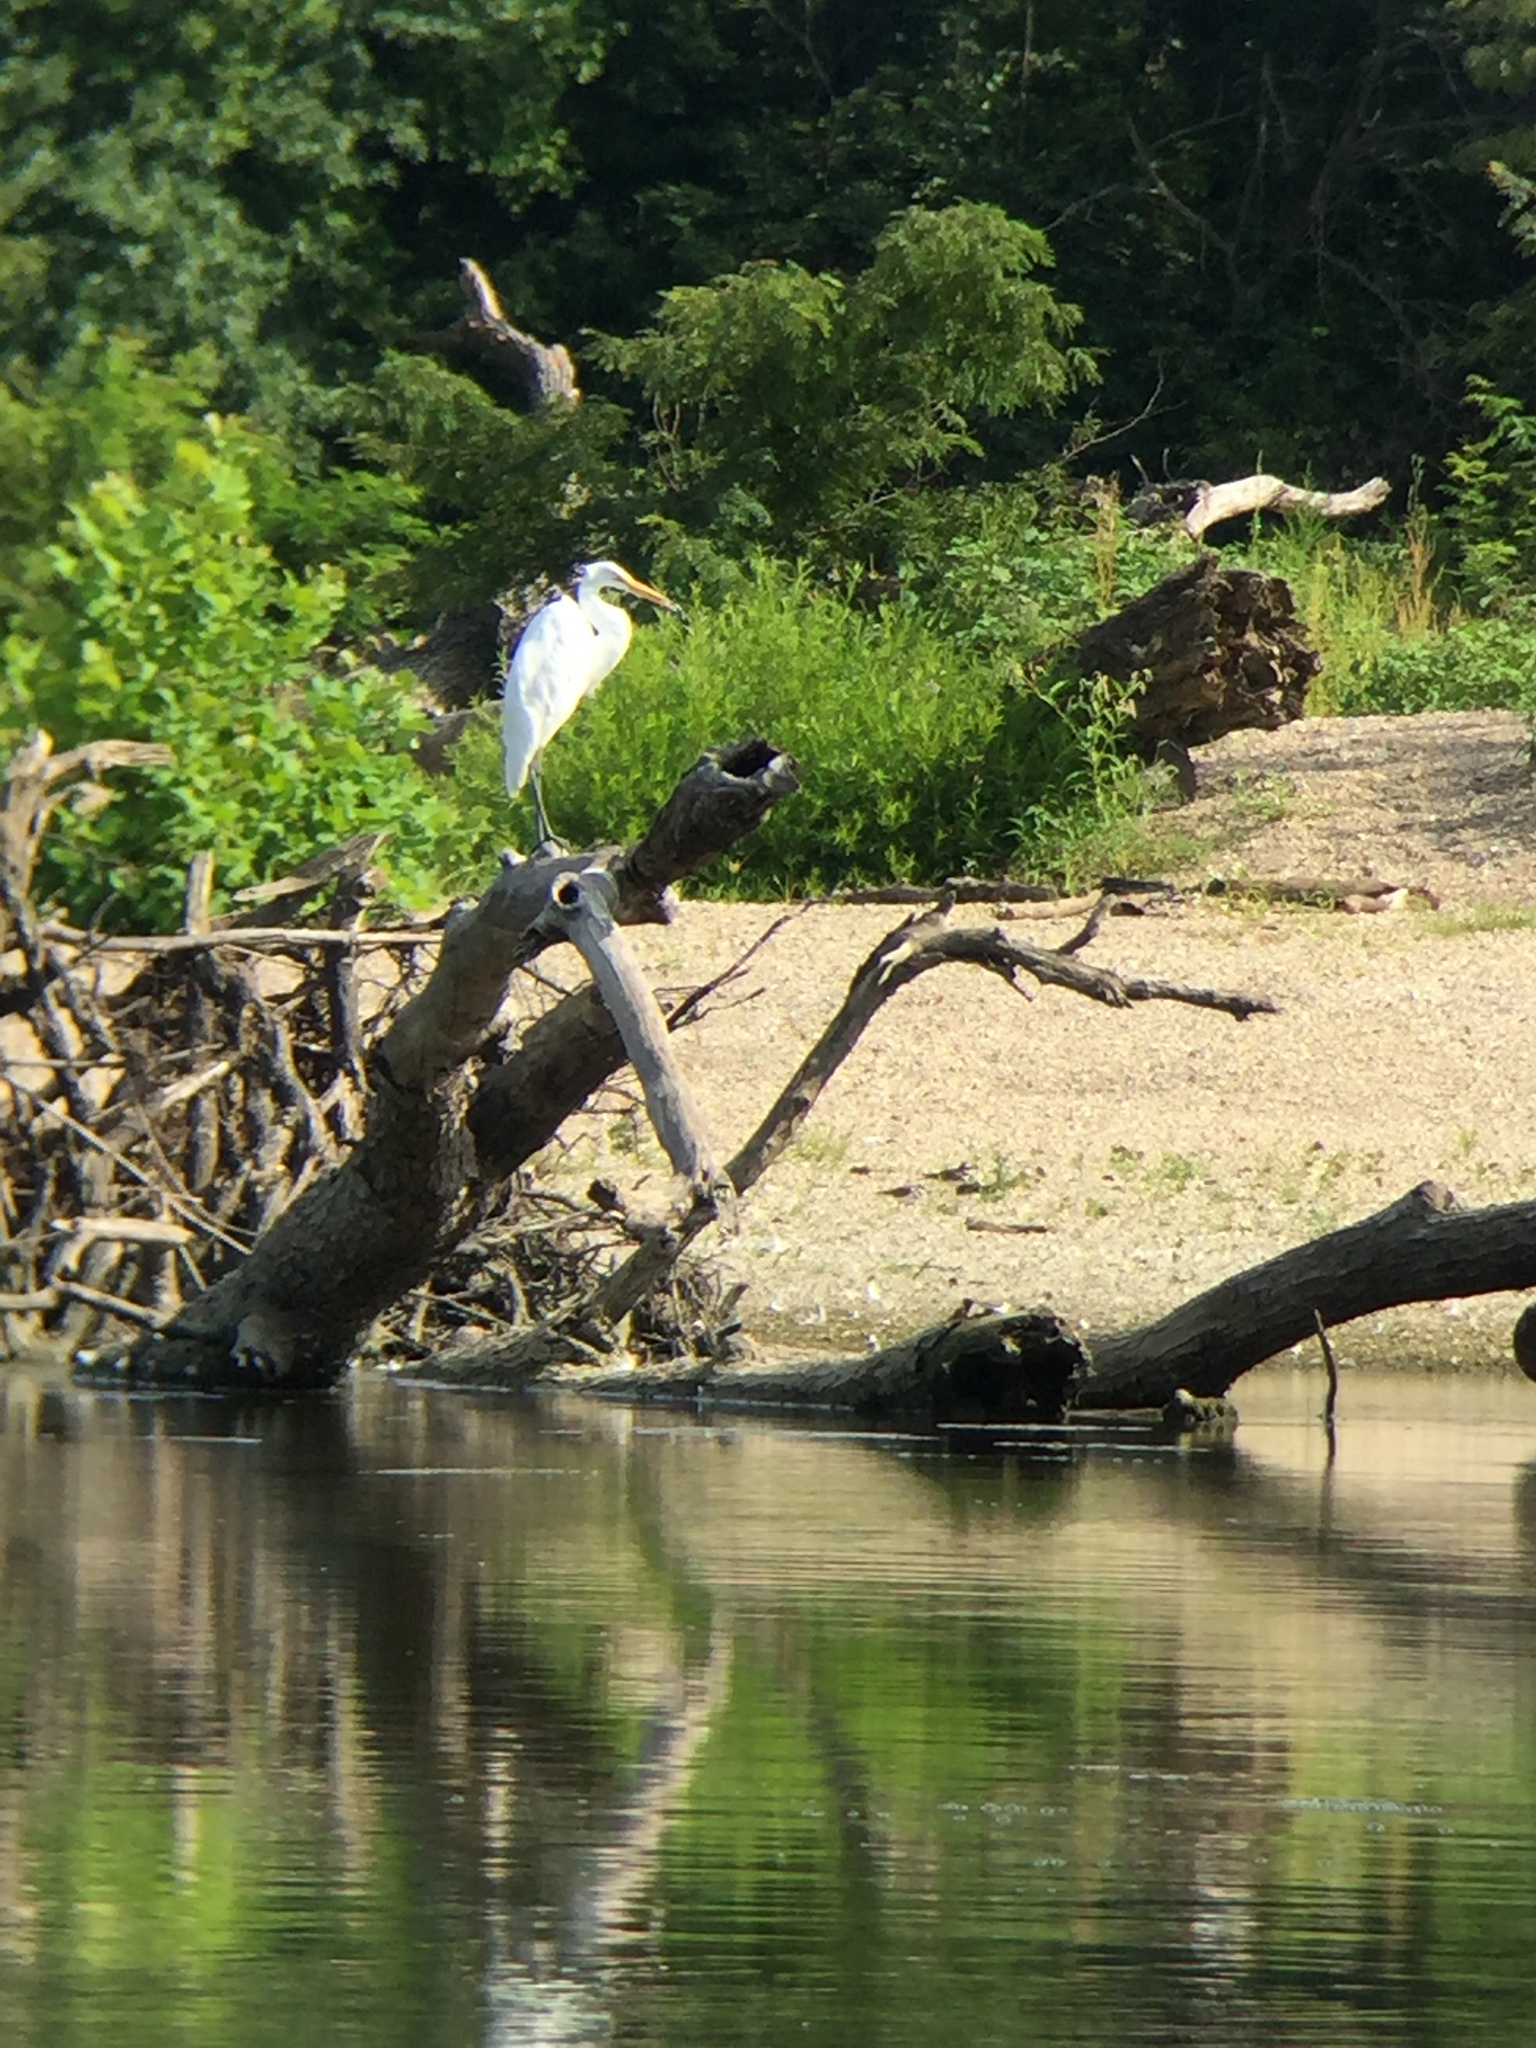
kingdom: Animalia
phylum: Chordata
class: Aves
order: Pelecaniformes
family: Ardeidae
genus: Ardea
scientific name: Ardea alba
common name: Great egret
